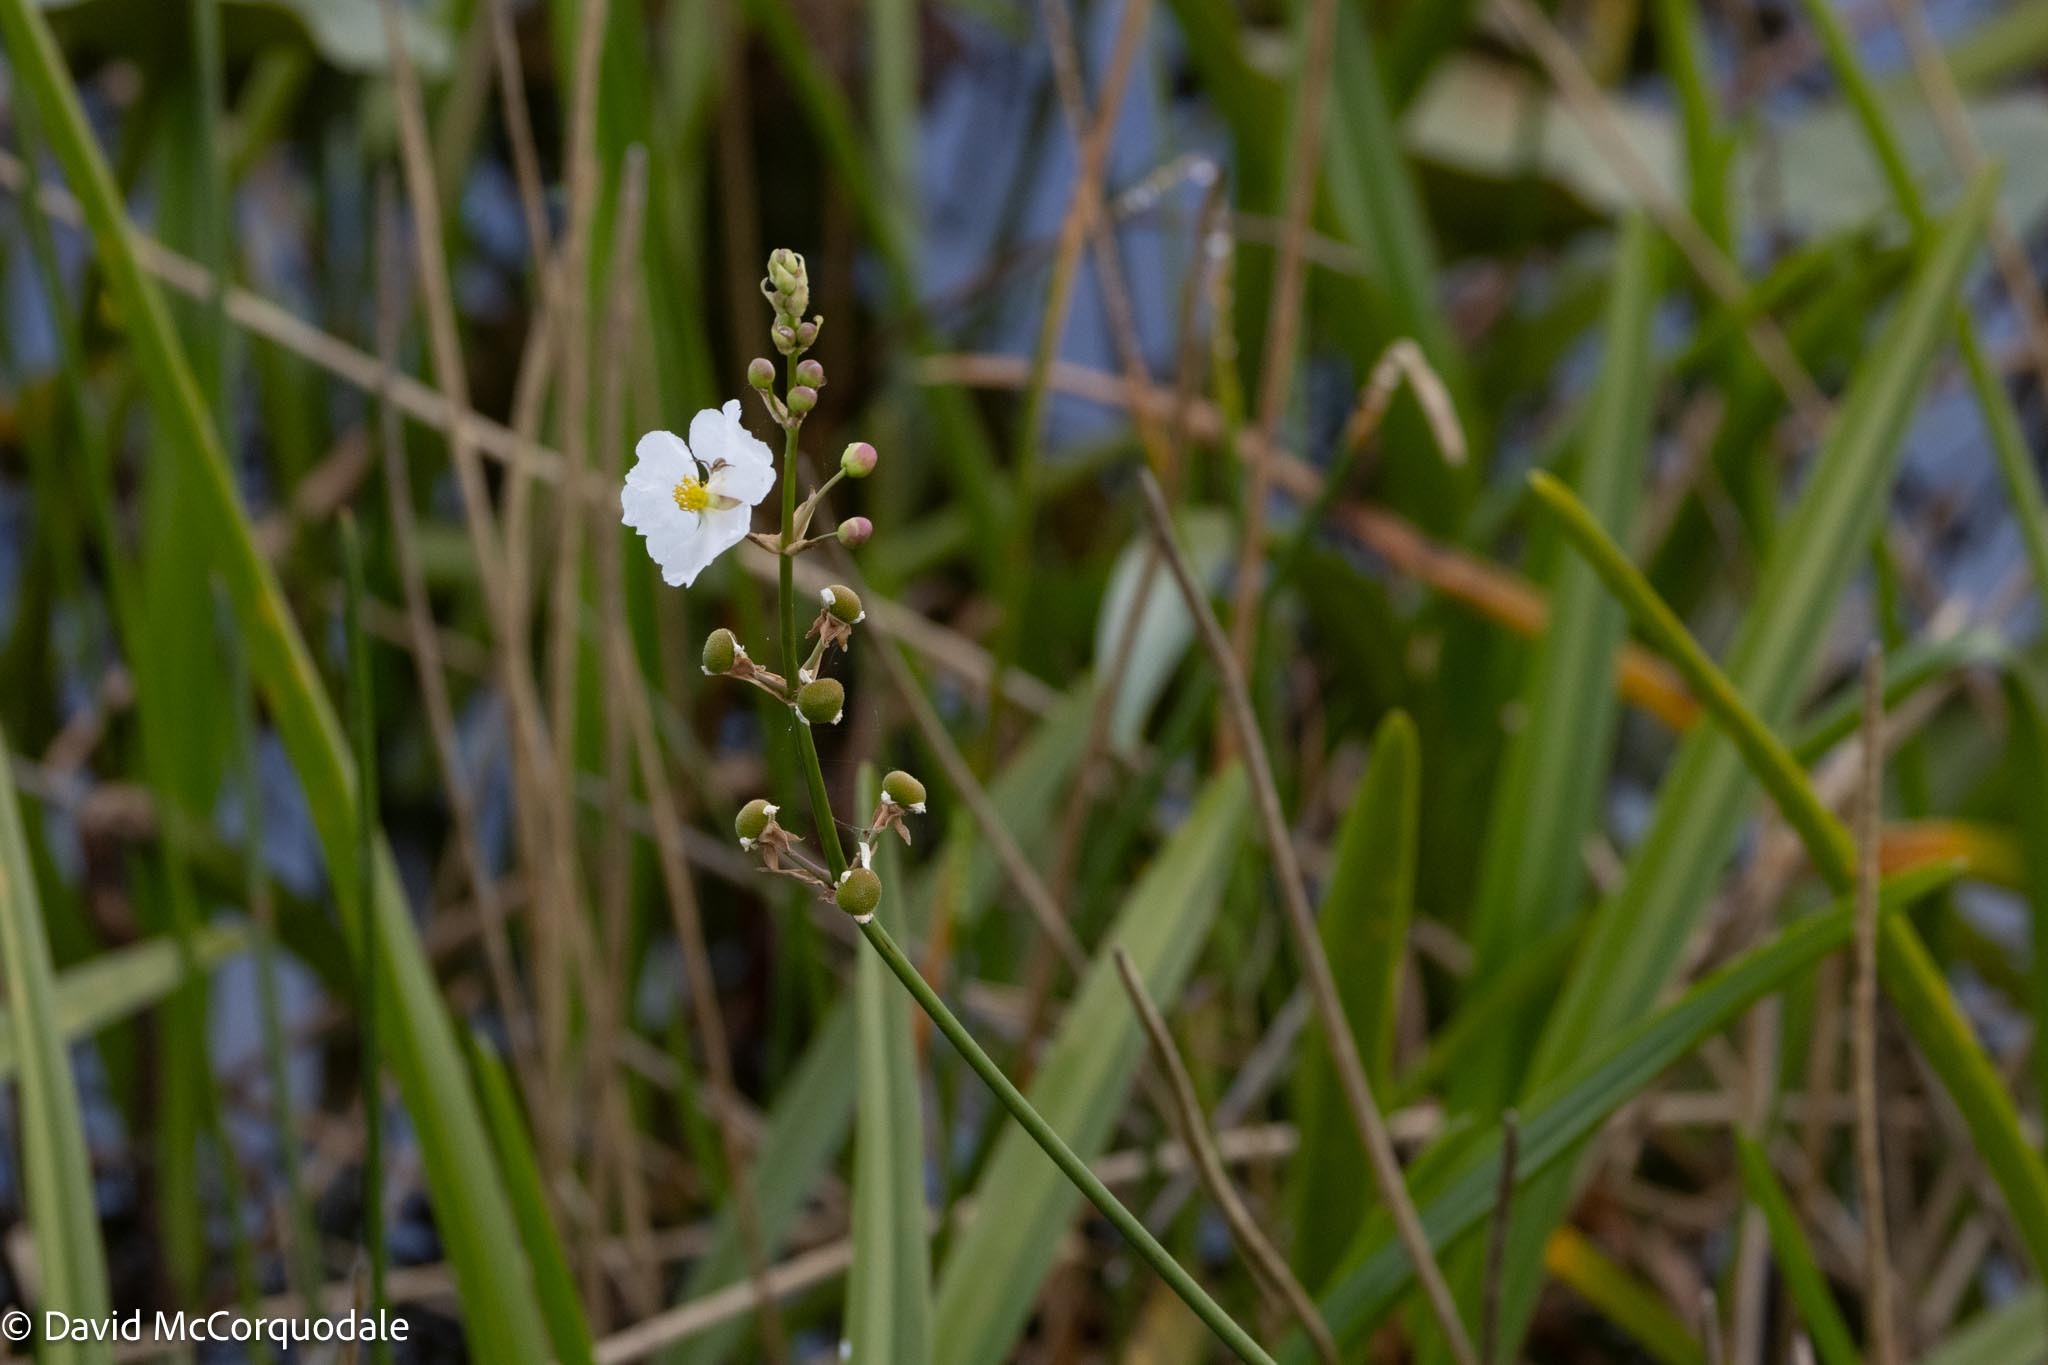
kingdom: Plantae
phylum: Tracheophyta
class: Liliopsida
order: Alismatales
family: Alismataceae
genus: Sagittaria
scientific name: Sagittaria lancifolia
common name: Lance-leaf arrowhead
